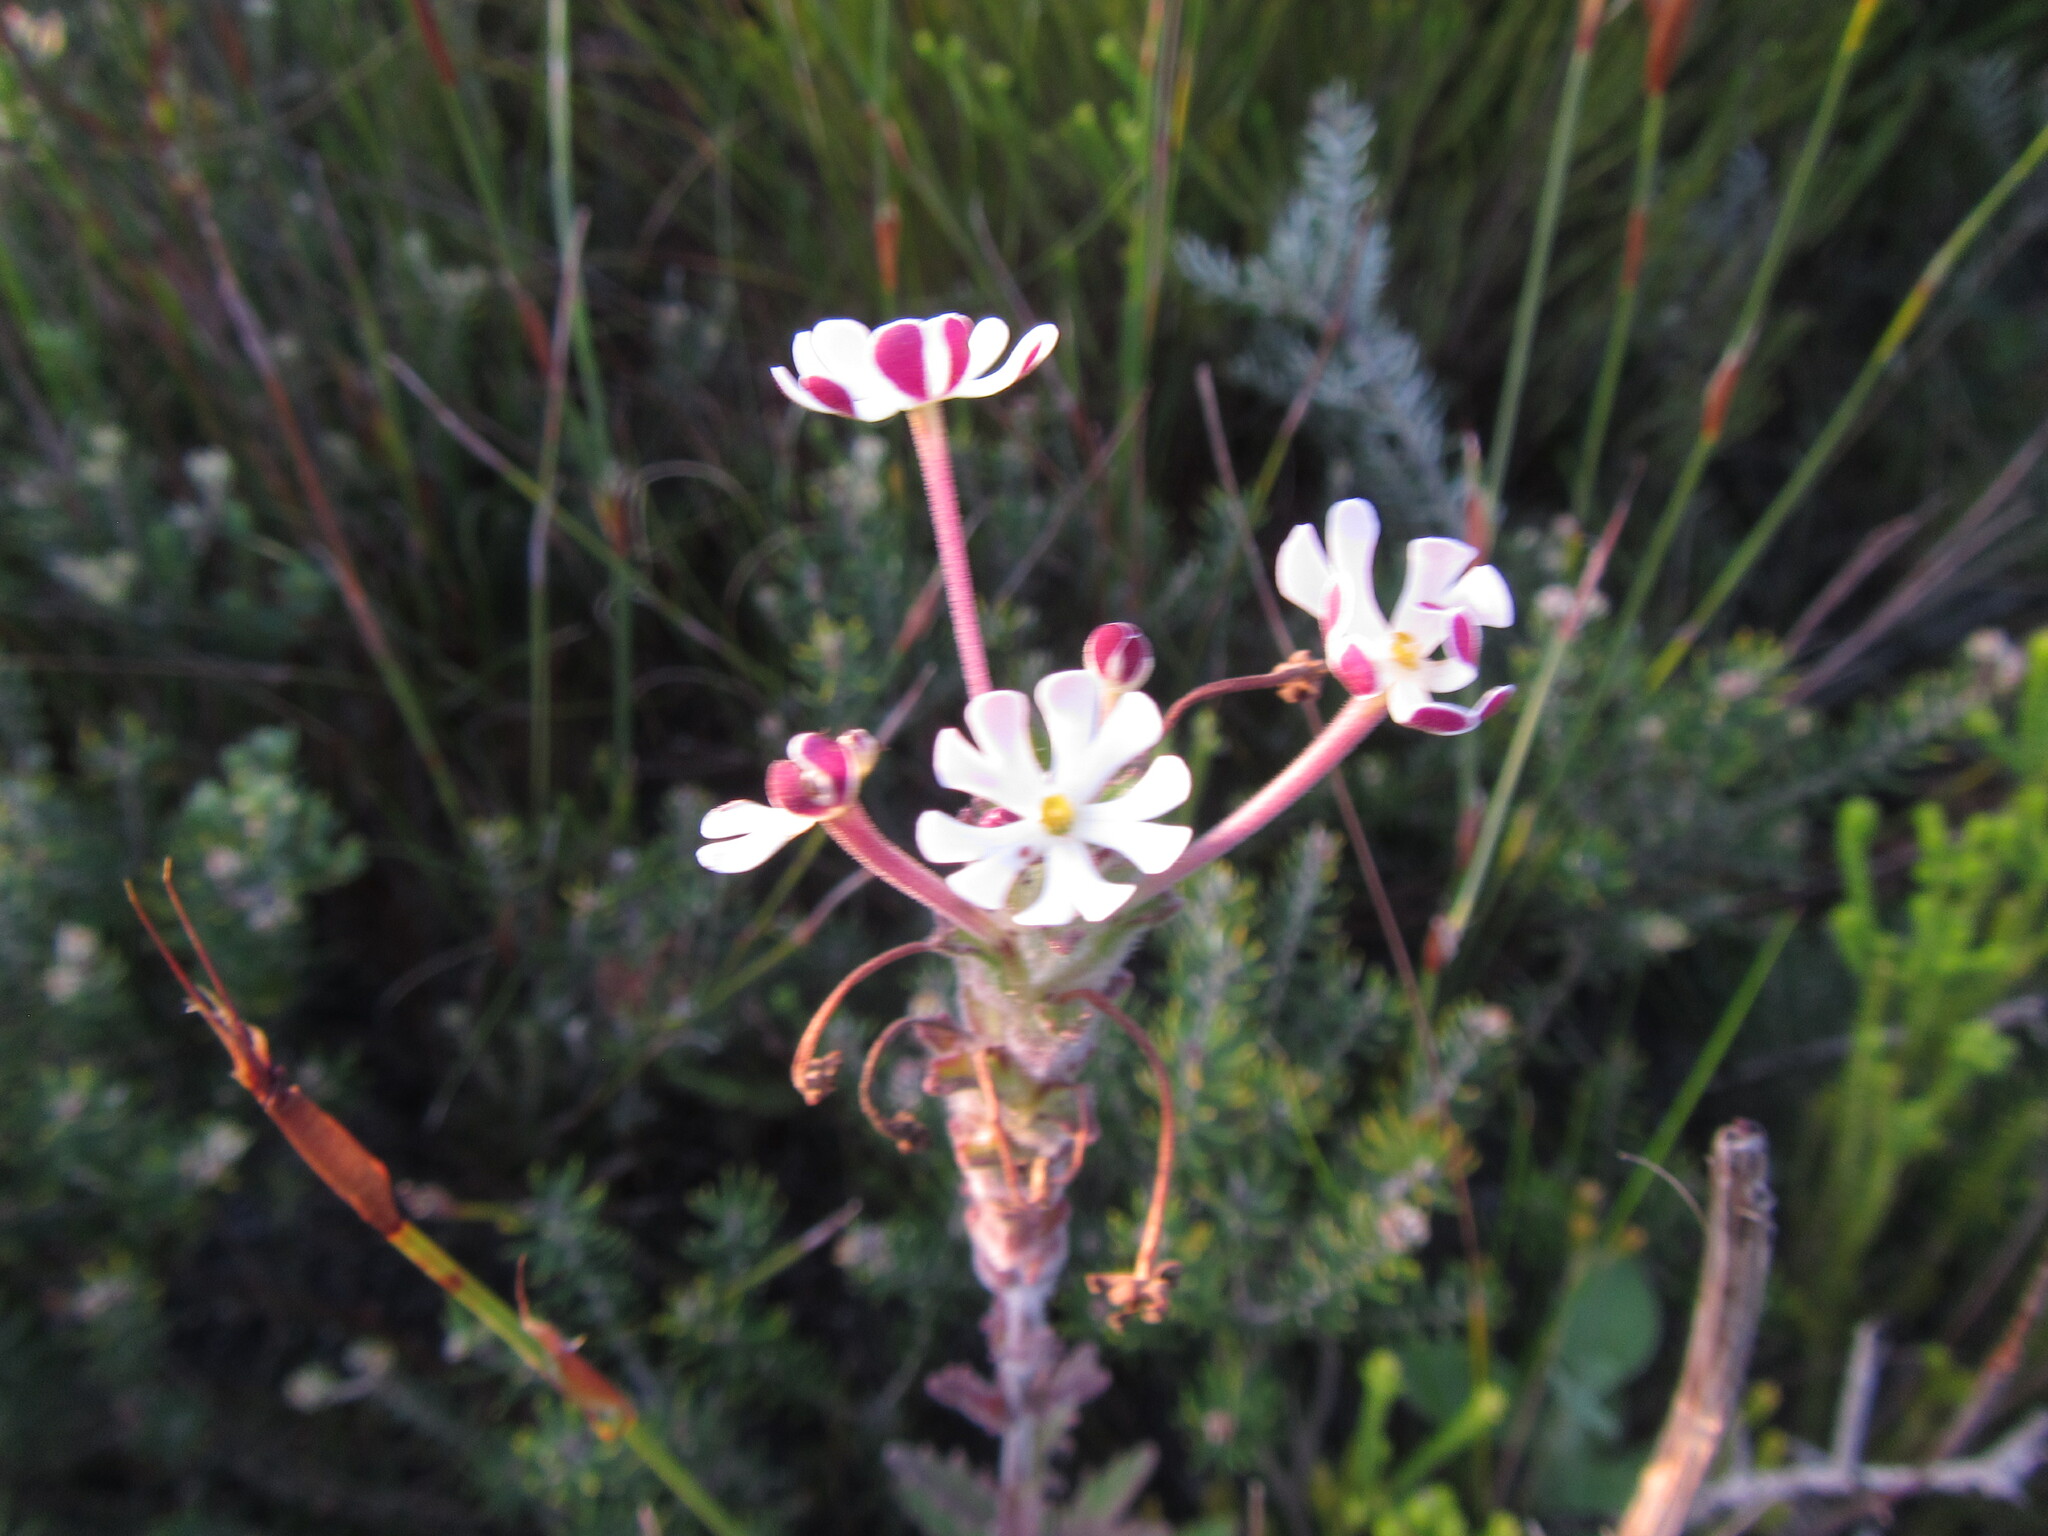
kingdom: Plantae
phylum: Tracheophyta
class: Magnoliopsida
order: Lamiales
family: Scrophulariaceae
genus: Zaluzianskya
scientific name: Zaluzianskya capensis
